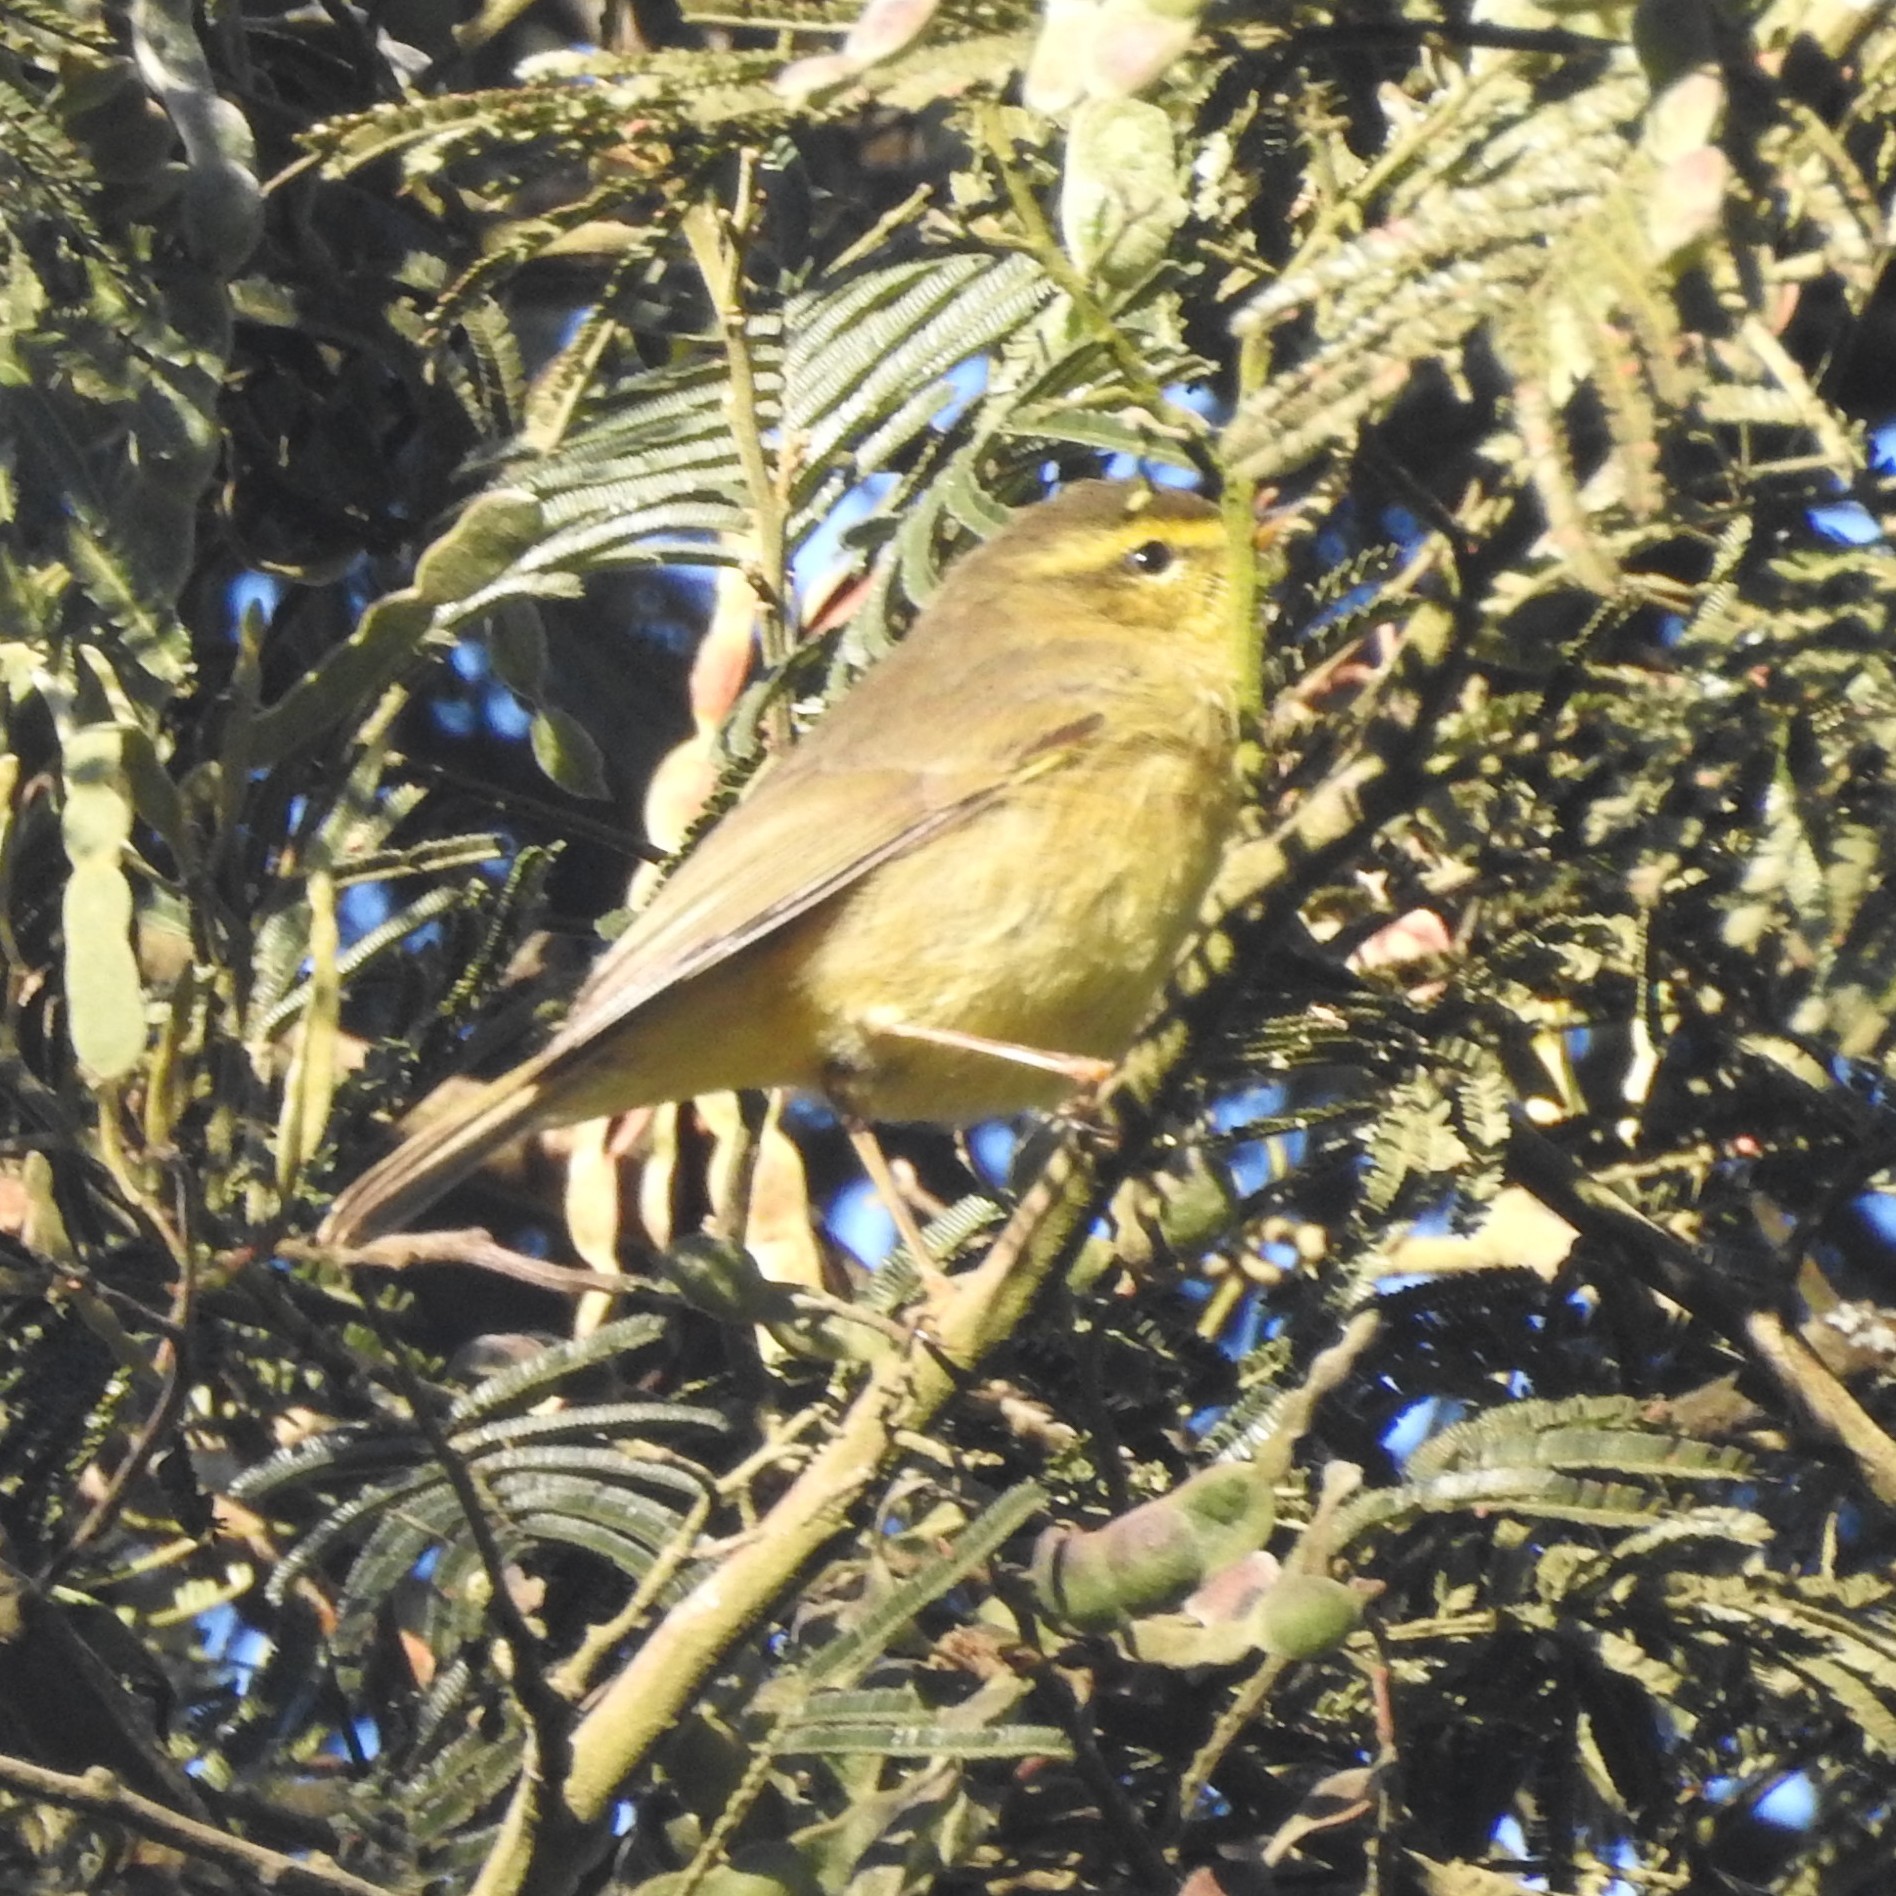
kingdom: Animalia
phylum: Chordata
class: Aves
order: Passeriformes
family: Phylloscopidae
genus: Phylloscopus
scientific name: Phylloscopus affinis
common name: Tickell's leaf warbler
